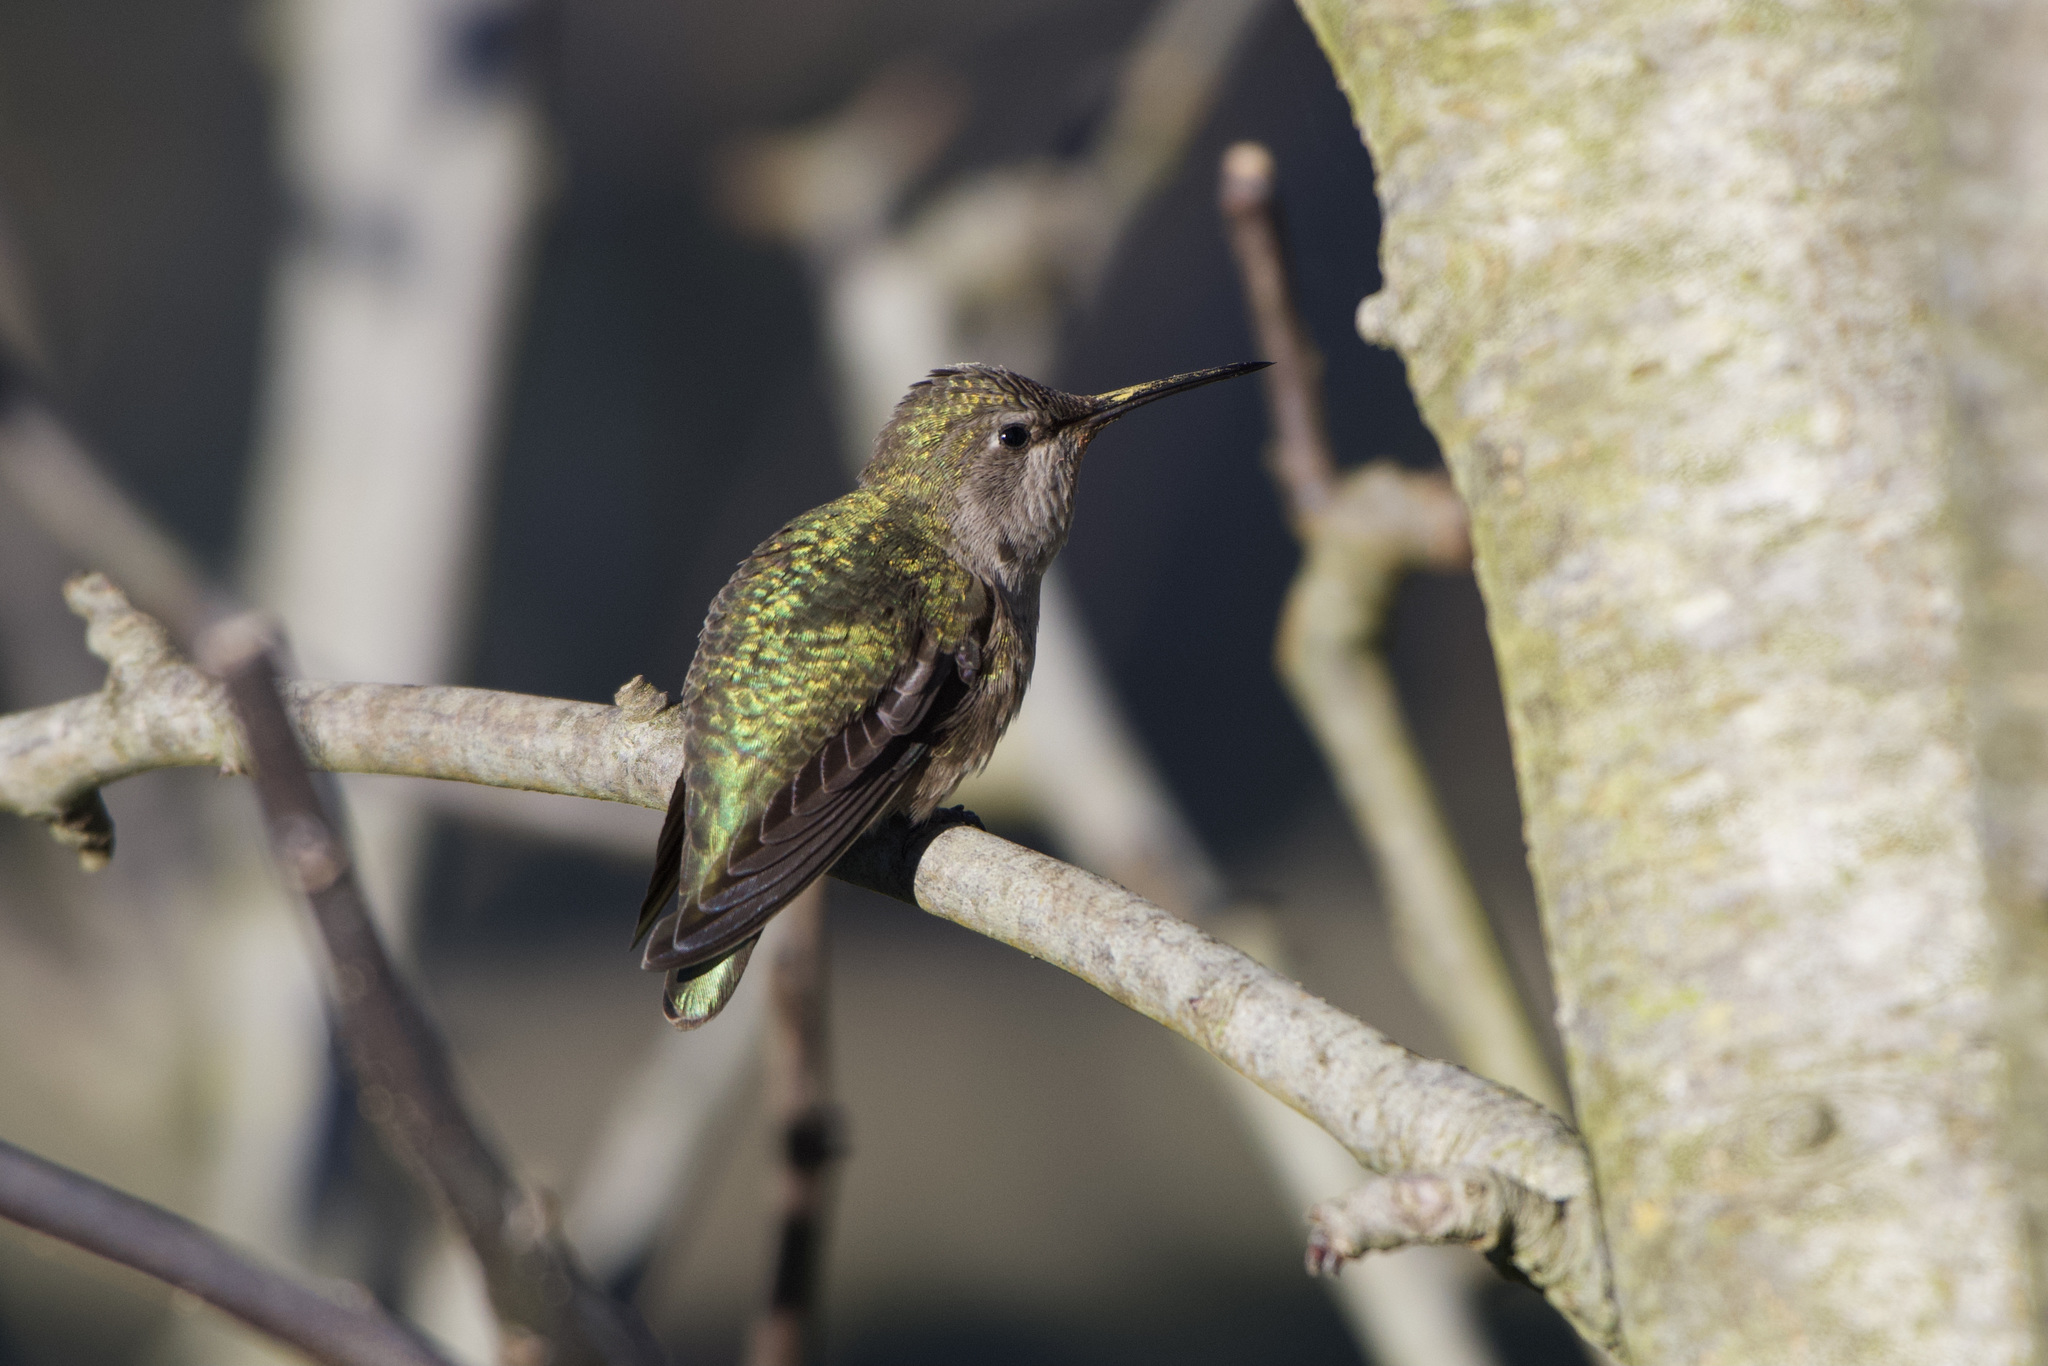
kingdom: Animalia
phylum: Chordata
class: Aves
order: Apodiformes
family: Trochilidae
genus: Calypte
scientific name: Calypte anna
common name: Anna's hummingbird
